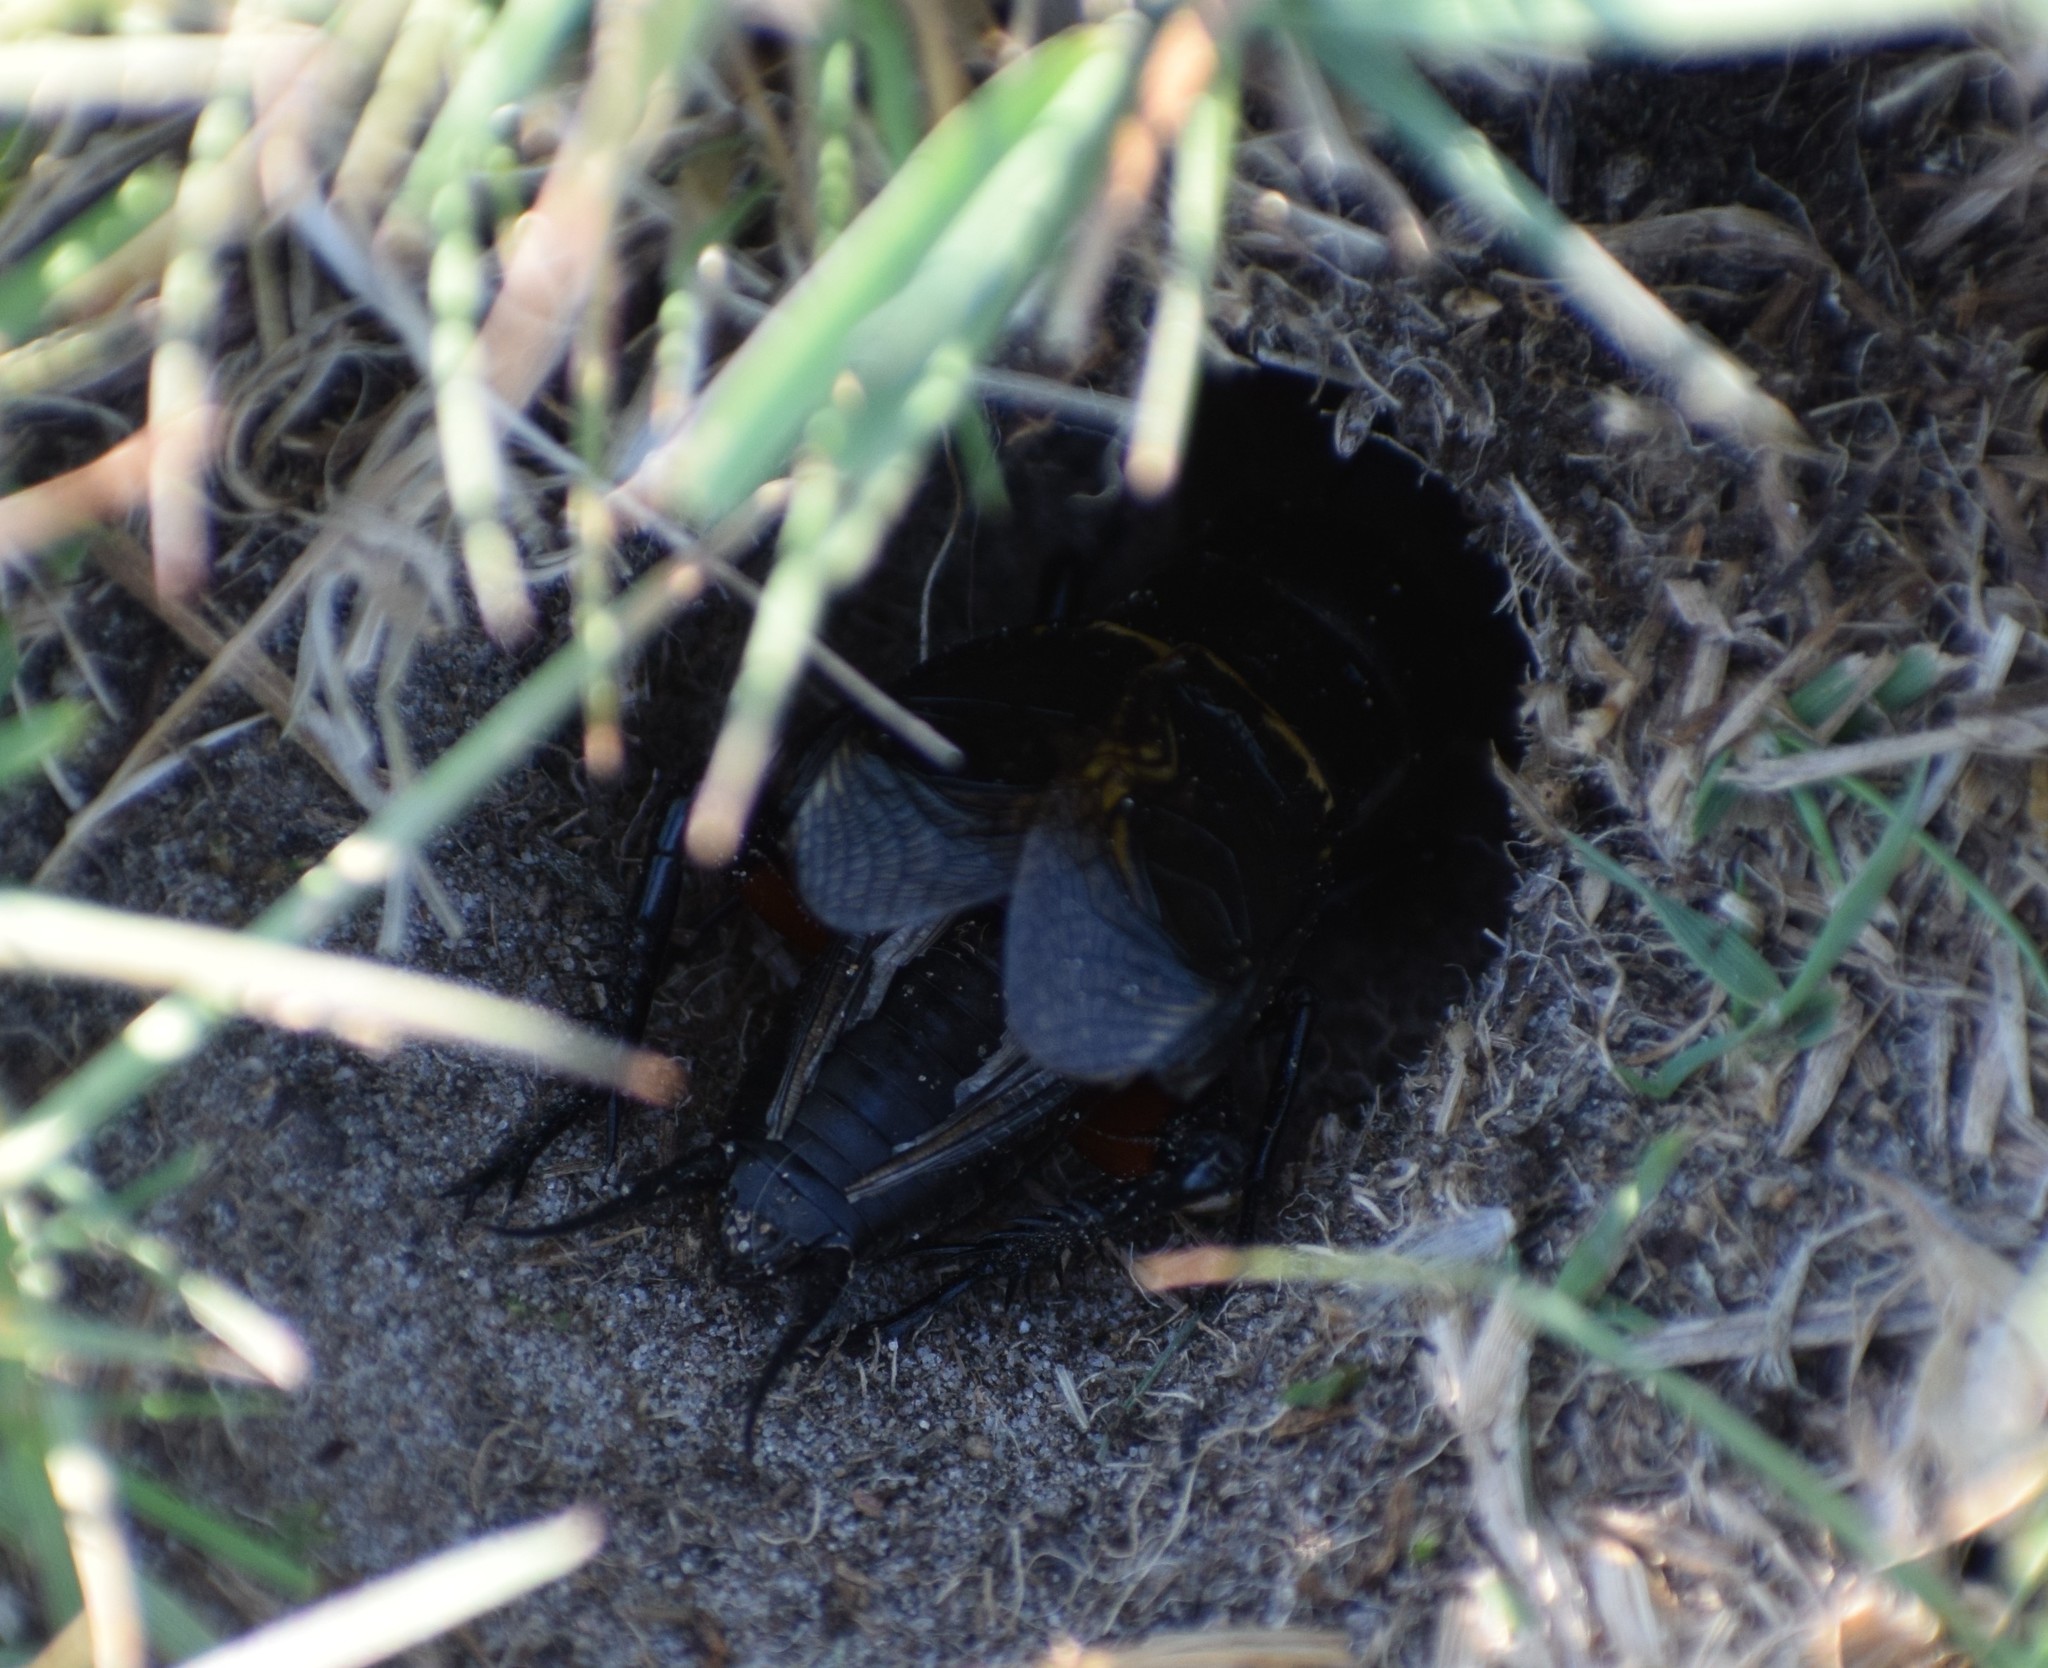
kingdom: Animalia
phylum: Arthropoda
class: Insecta
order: Orthoptera
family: Gryllidae
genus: Gryllus
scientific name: Gryllus campestris
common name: Field cricket
